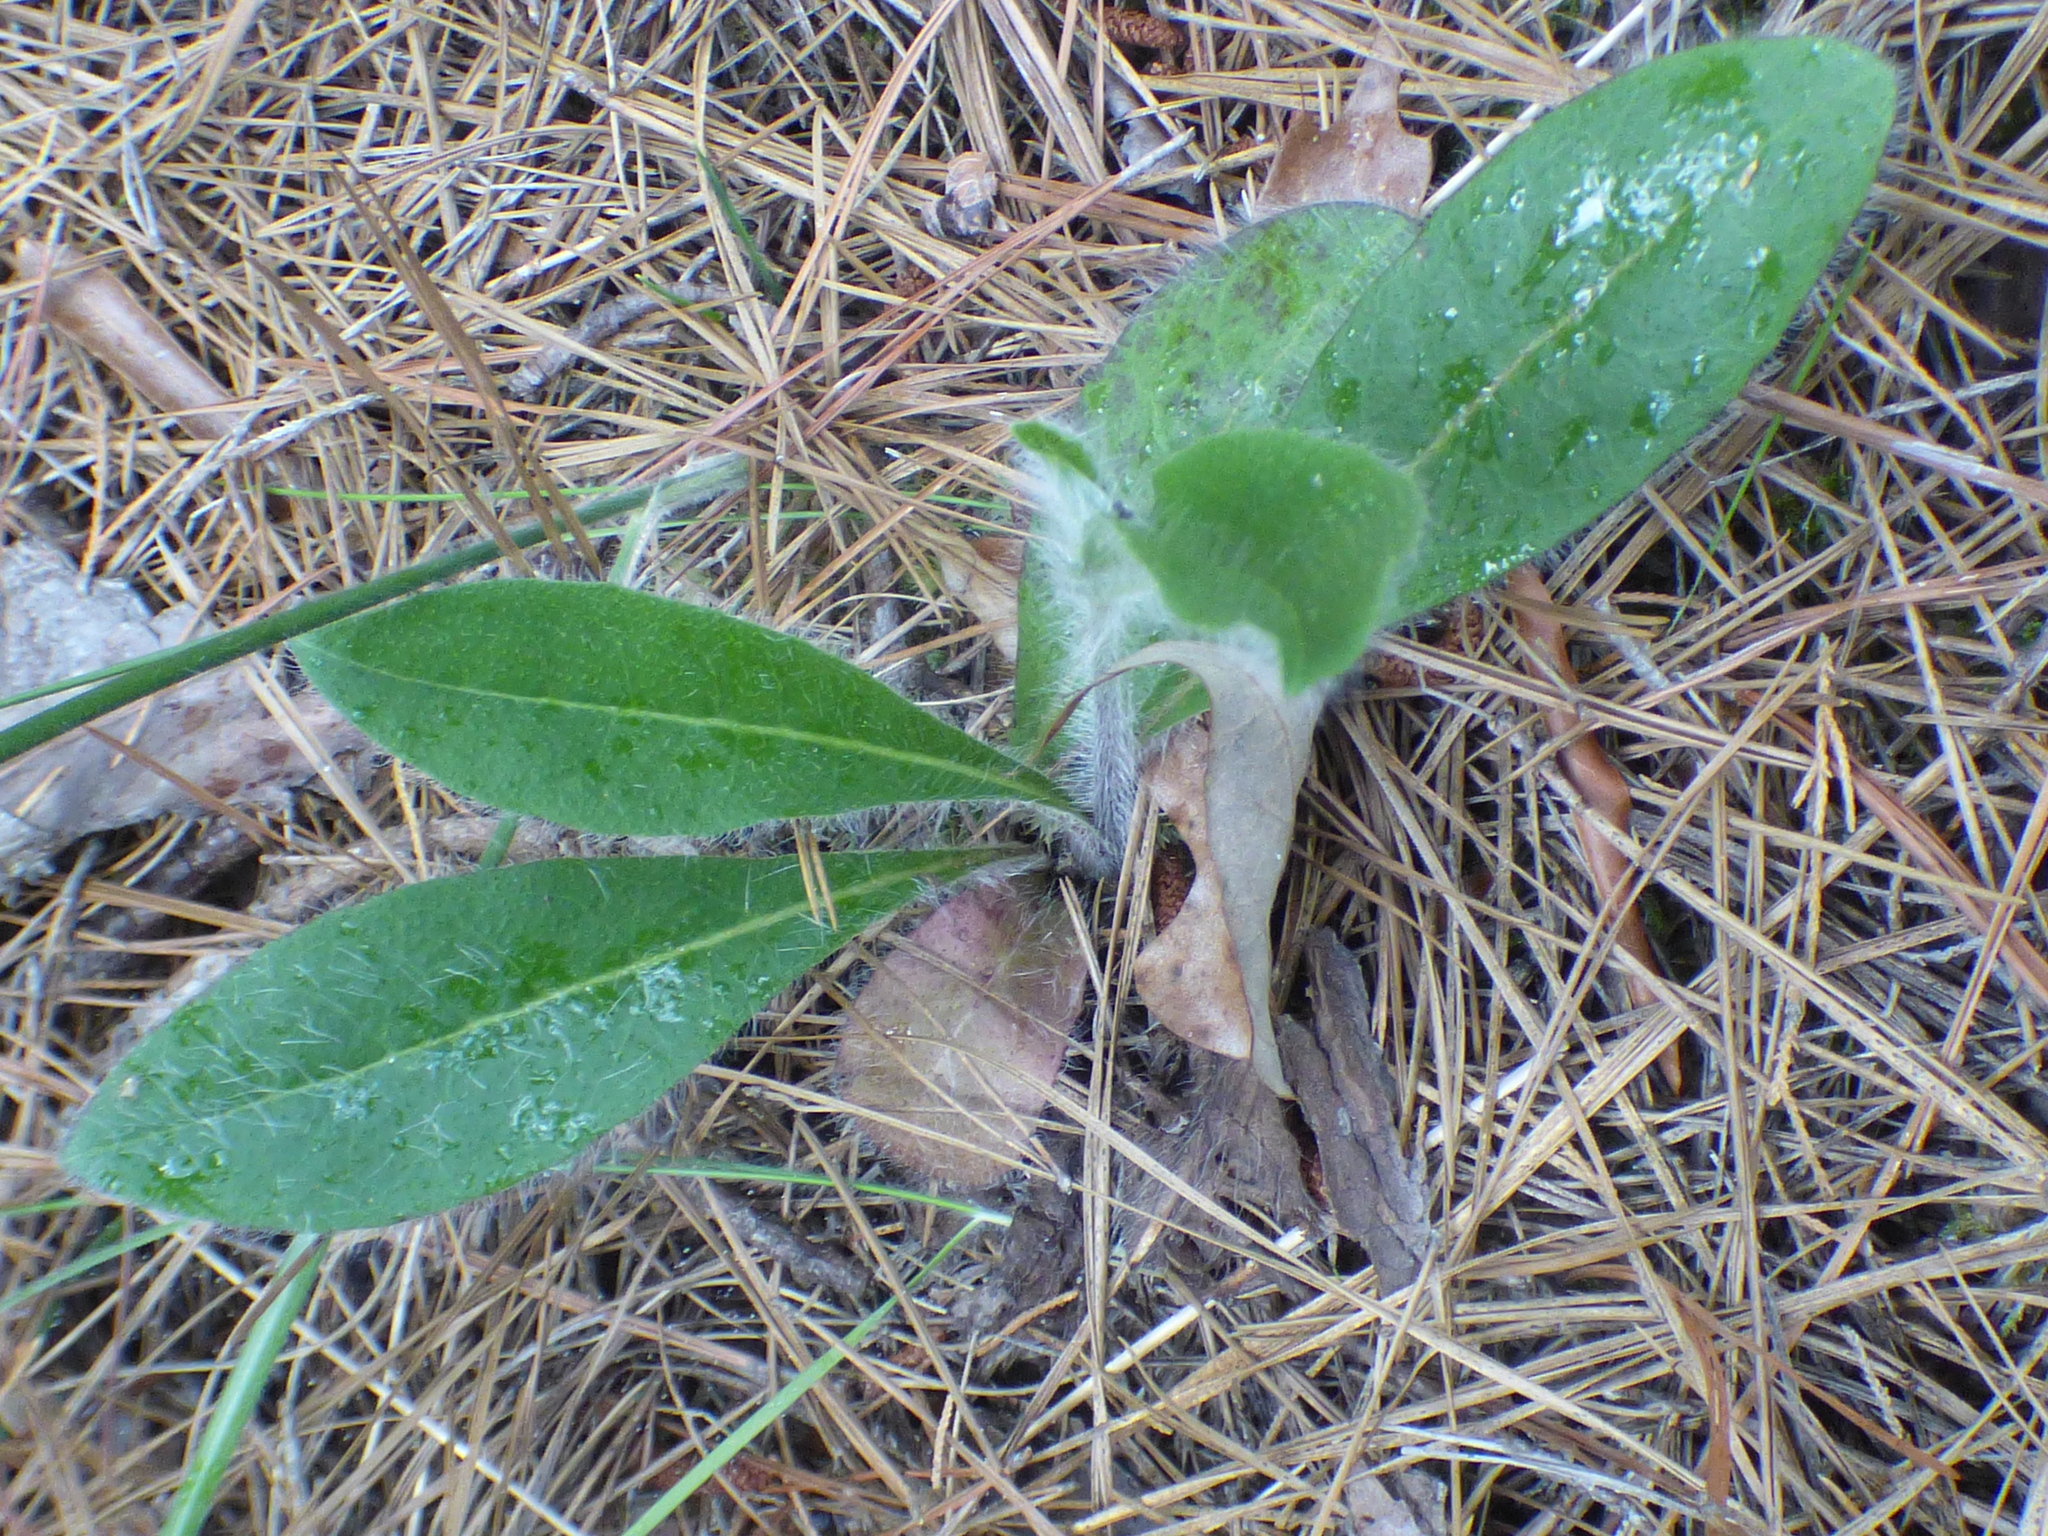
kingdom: Plantae
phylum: Tracheophyta
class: Magnoliopsida
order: Asterales
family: Asteraceae
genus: Hieracium
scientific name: Hieracium gronovii
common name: Beaked hawkweed
